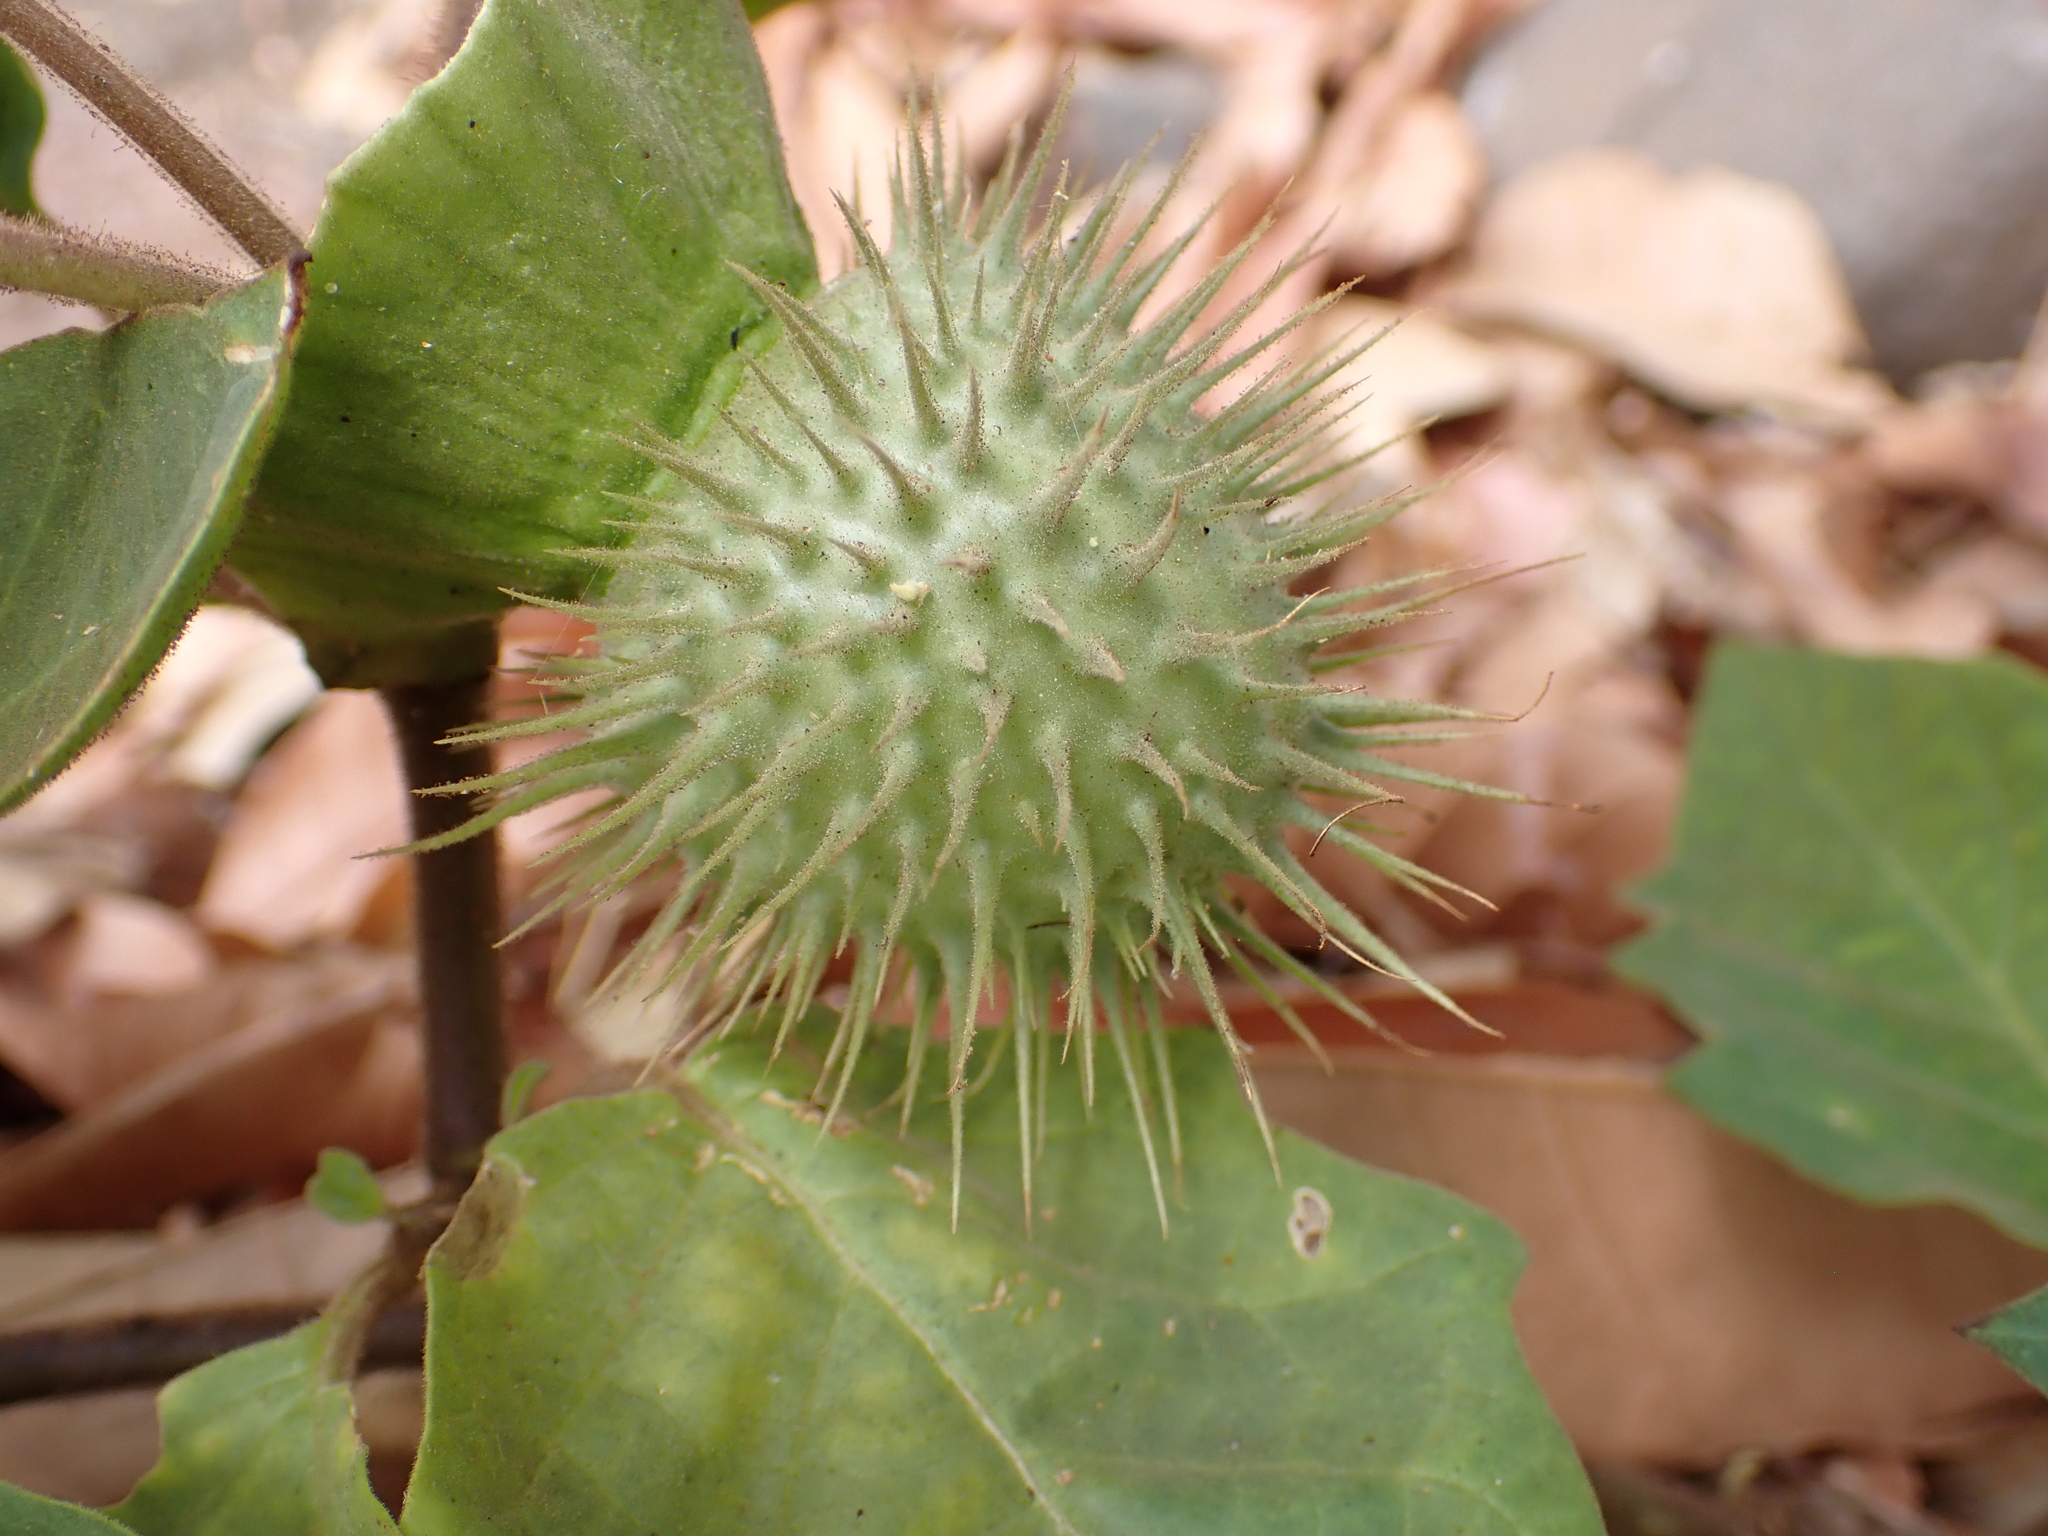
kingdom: Plantae
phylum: Tracheophyta
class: Magnoliopsida
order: Solanales
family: Solanaceae
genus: Datura
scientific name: Datura innoxia
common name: Downy thorn-apple
